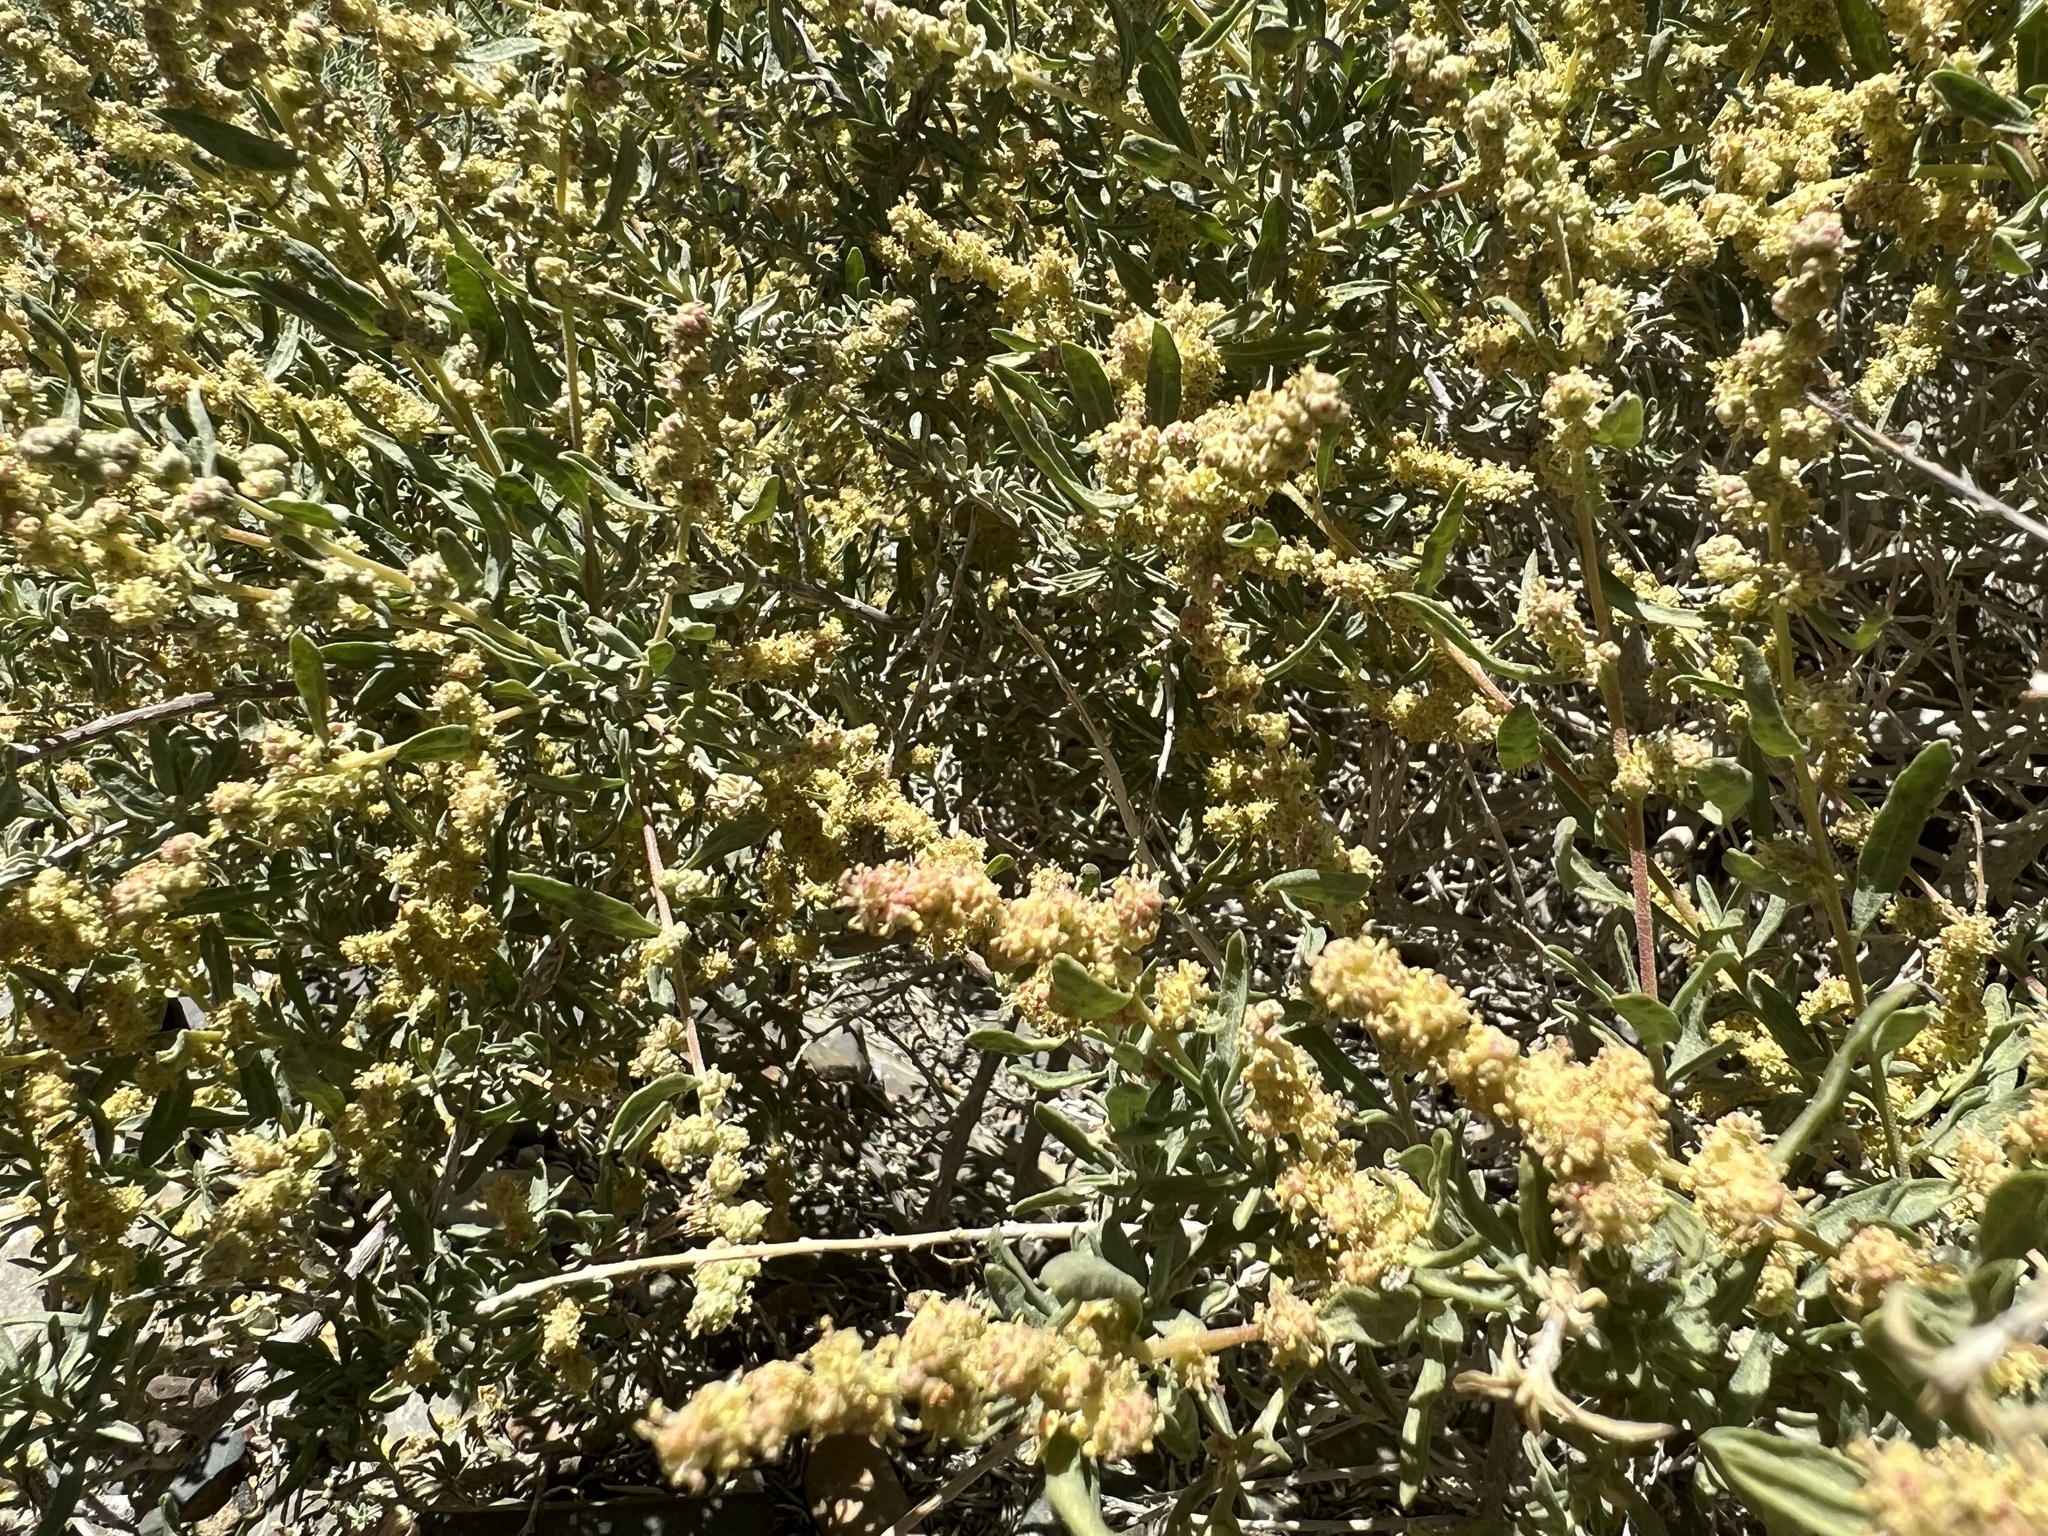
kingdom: Plantae
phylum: Tracheophyta
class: Magnoliopsida
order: Caryophyllales
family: Amaranthaceae
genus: Atriplex
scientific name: Atriplex canescens
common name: Four-wing saltbush
